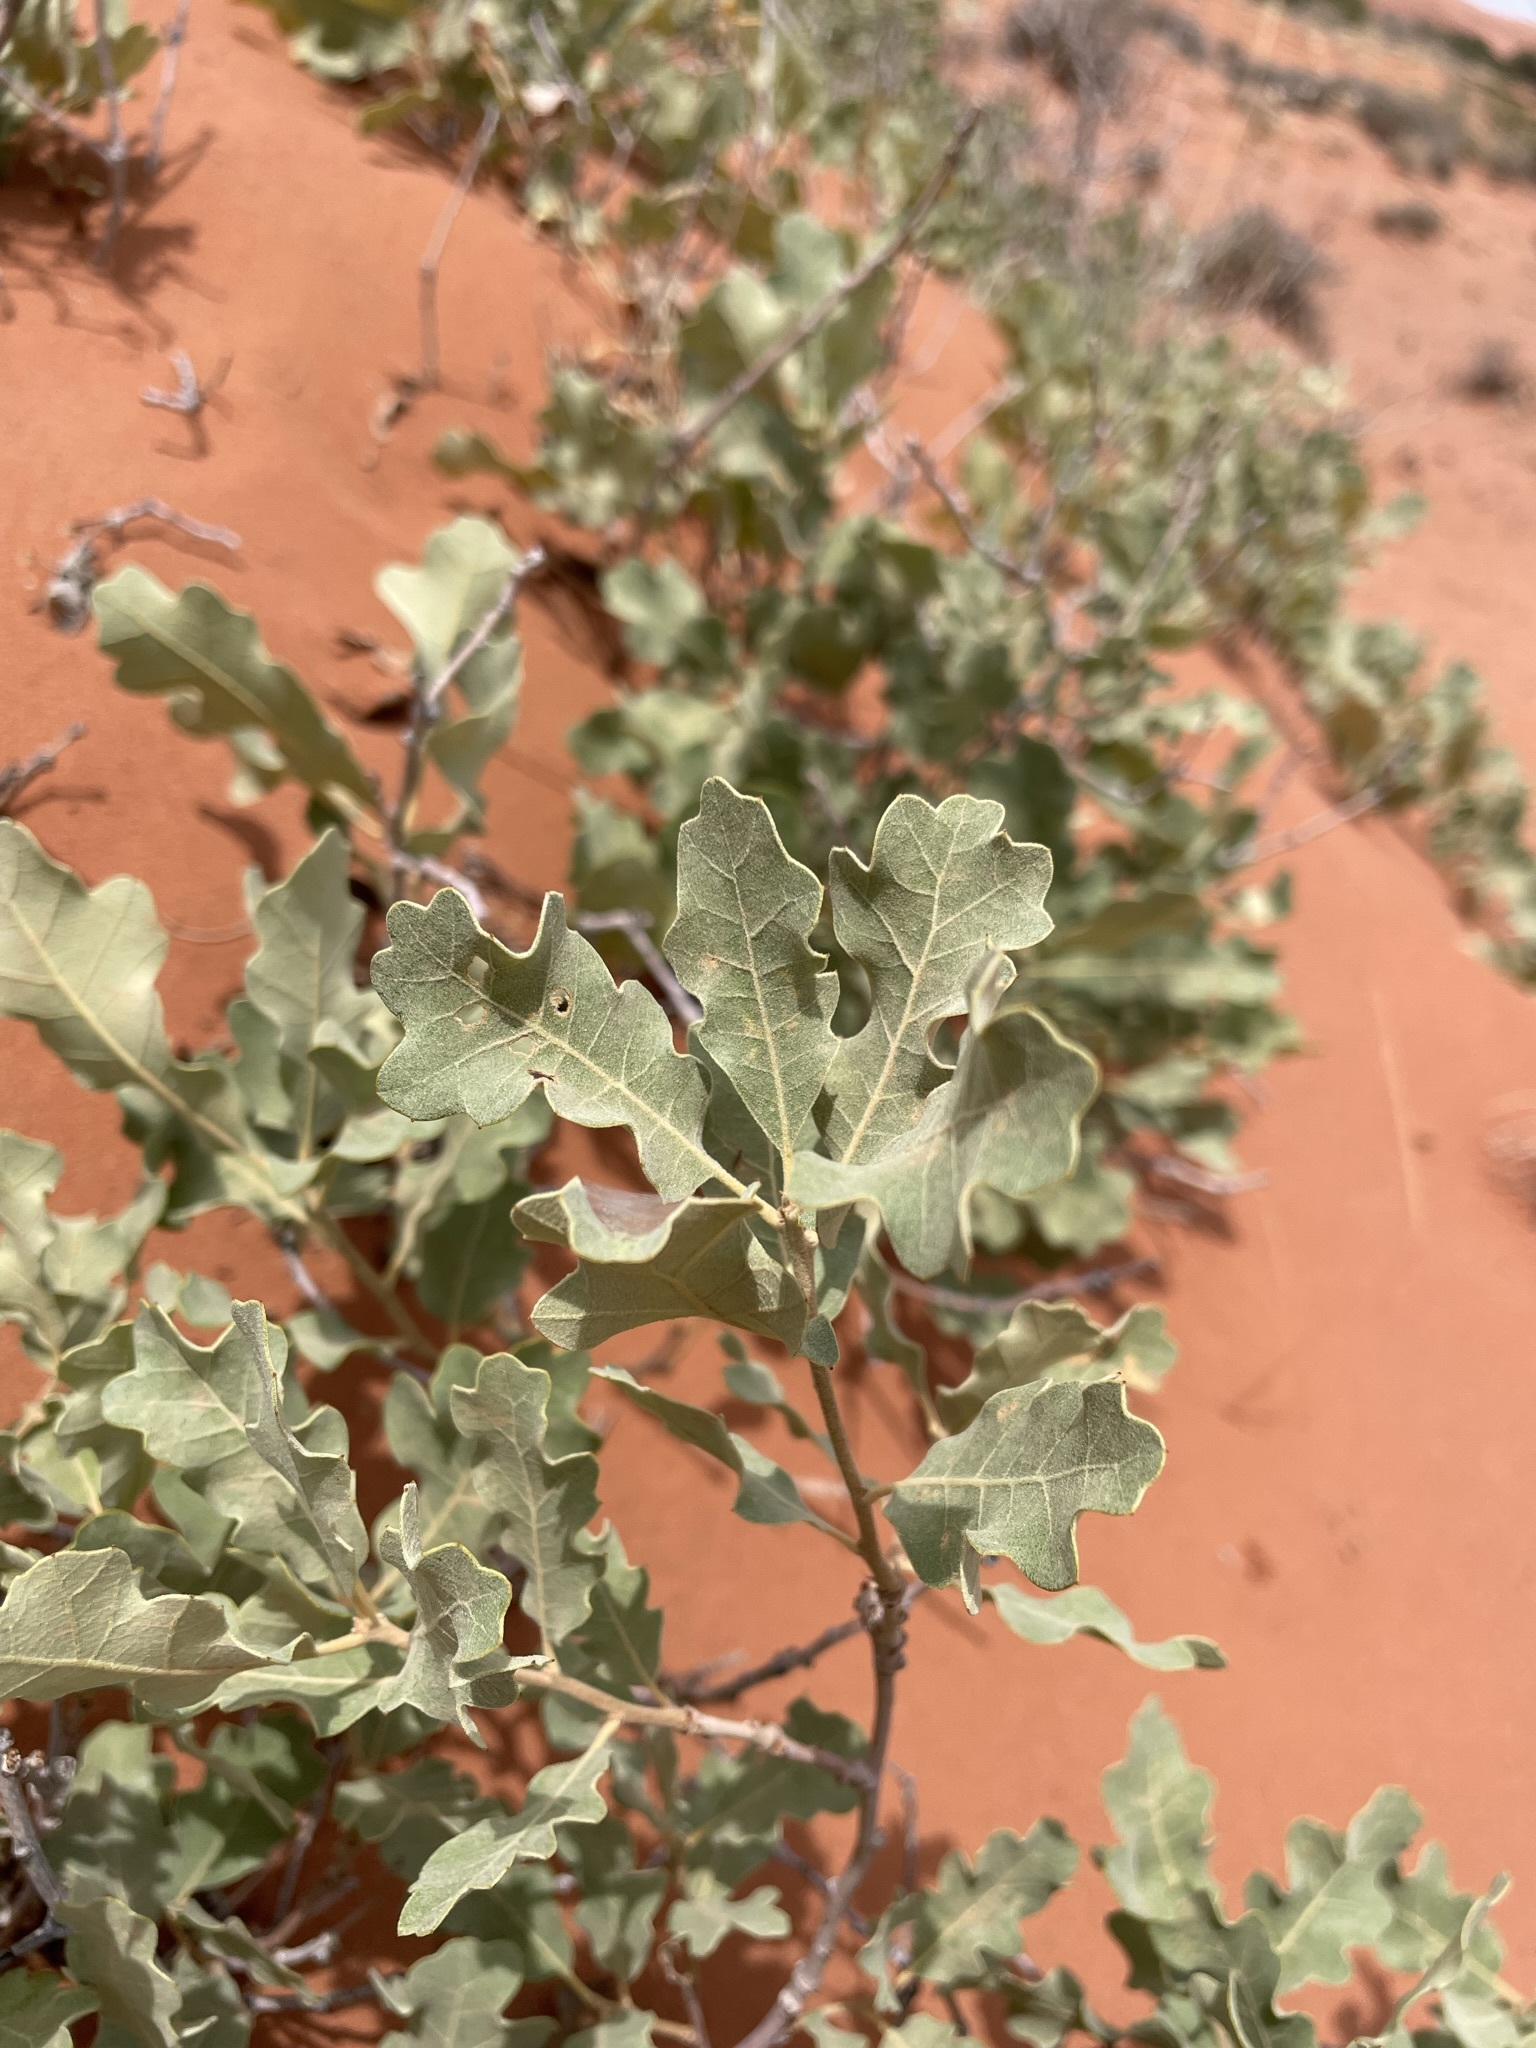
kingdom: Plantae
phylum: Tracheophyta
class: Magnoliopsida
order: Fagales
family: Fagaceae
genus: Quercus
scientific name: Quercus welshii
